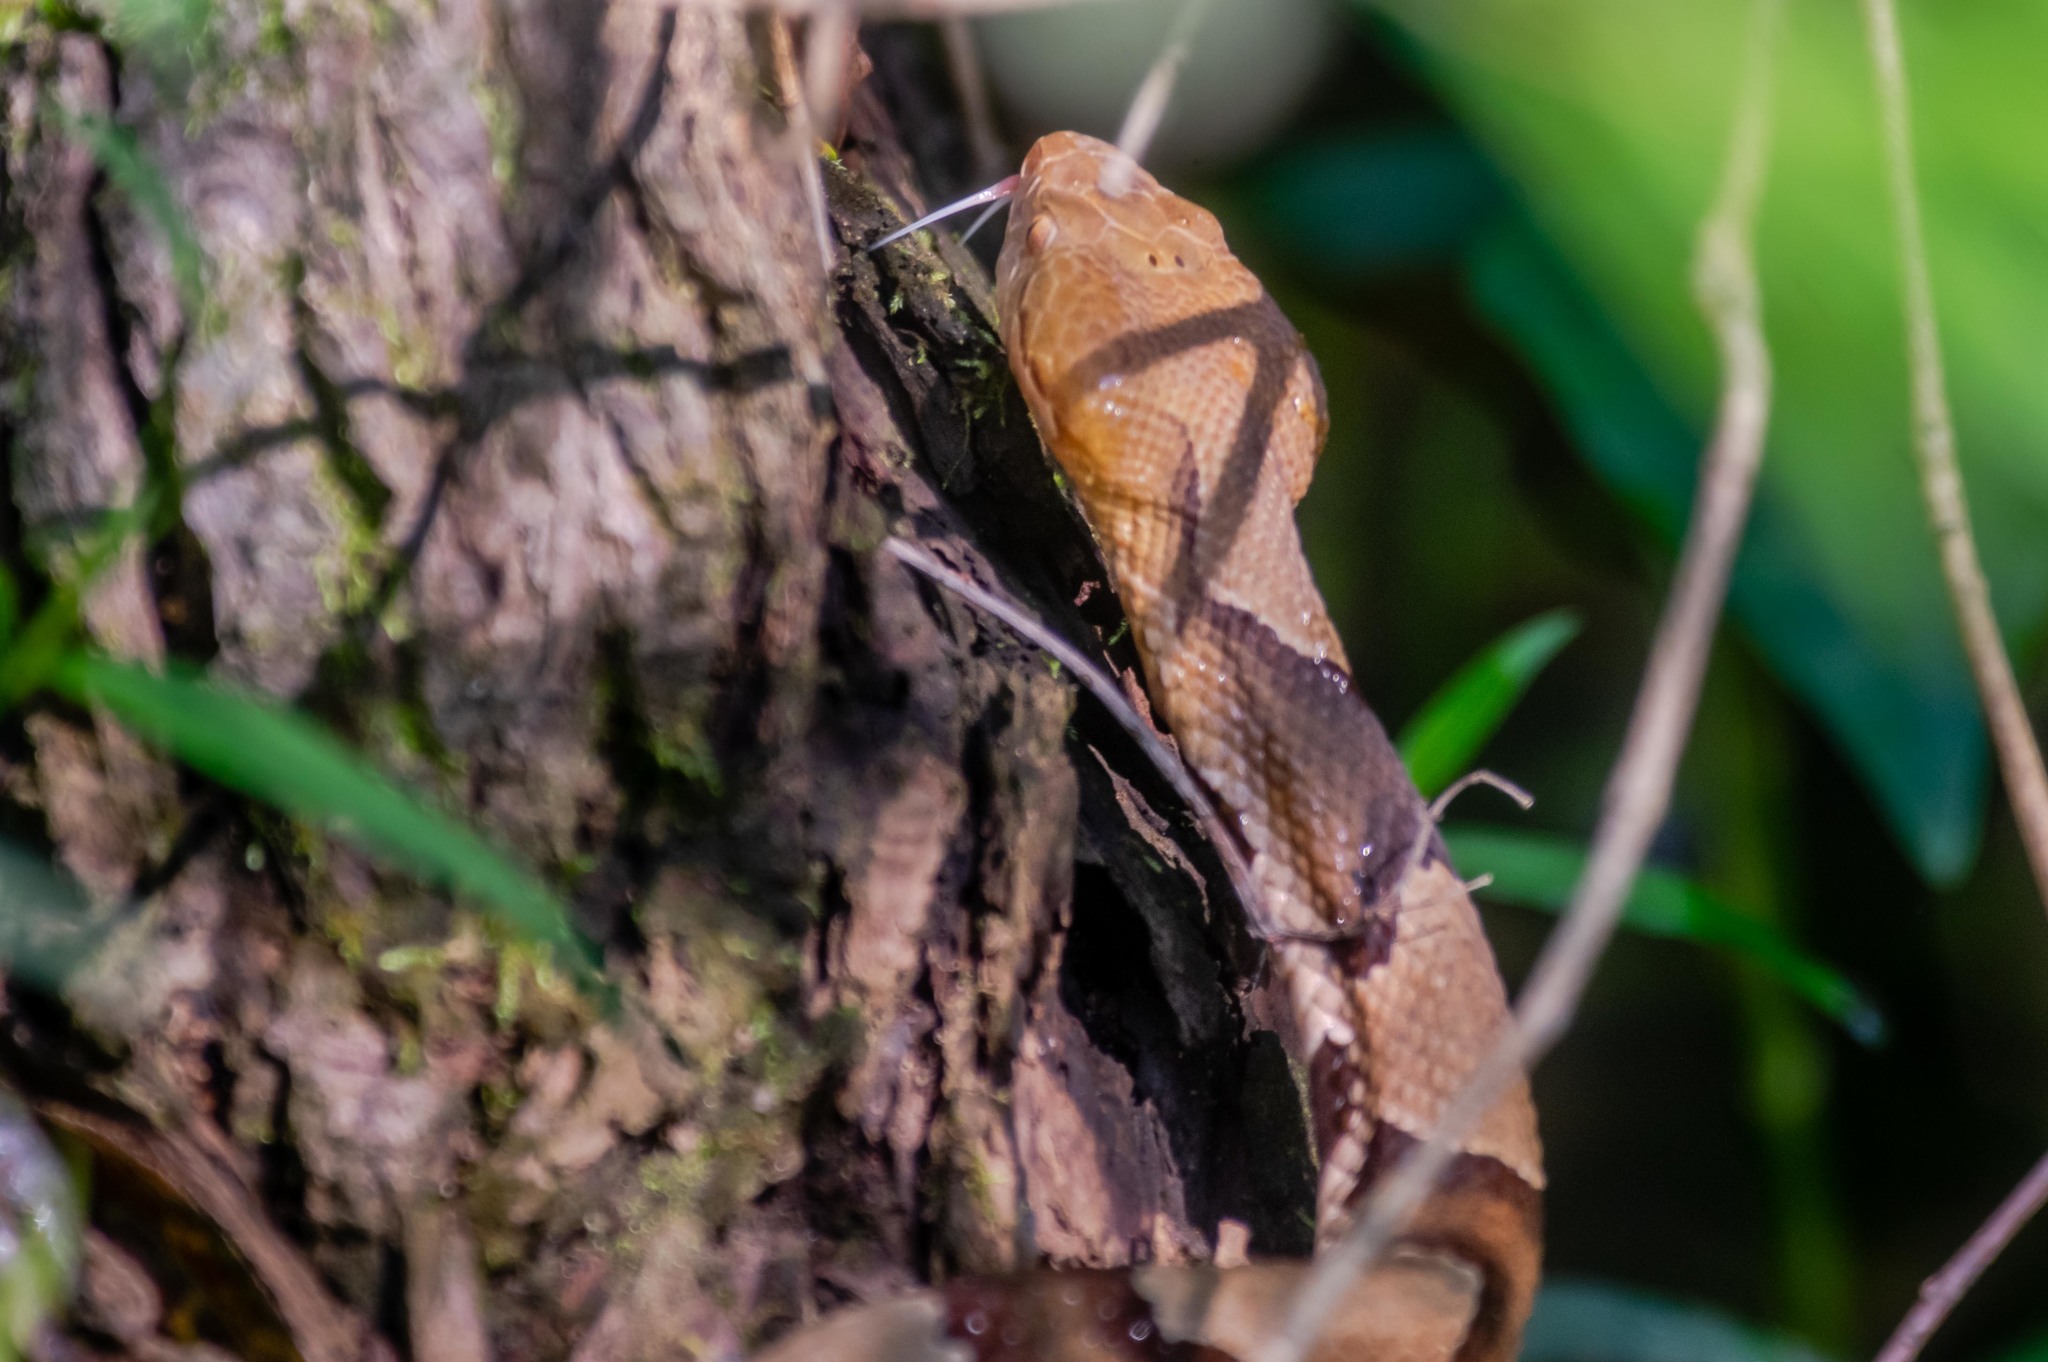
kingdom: Animalia
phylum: Chordata
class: Squamata
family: Viperidae
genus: Agkistrodon
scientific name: Agkistrodon contortrix
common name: Northern copperhead
